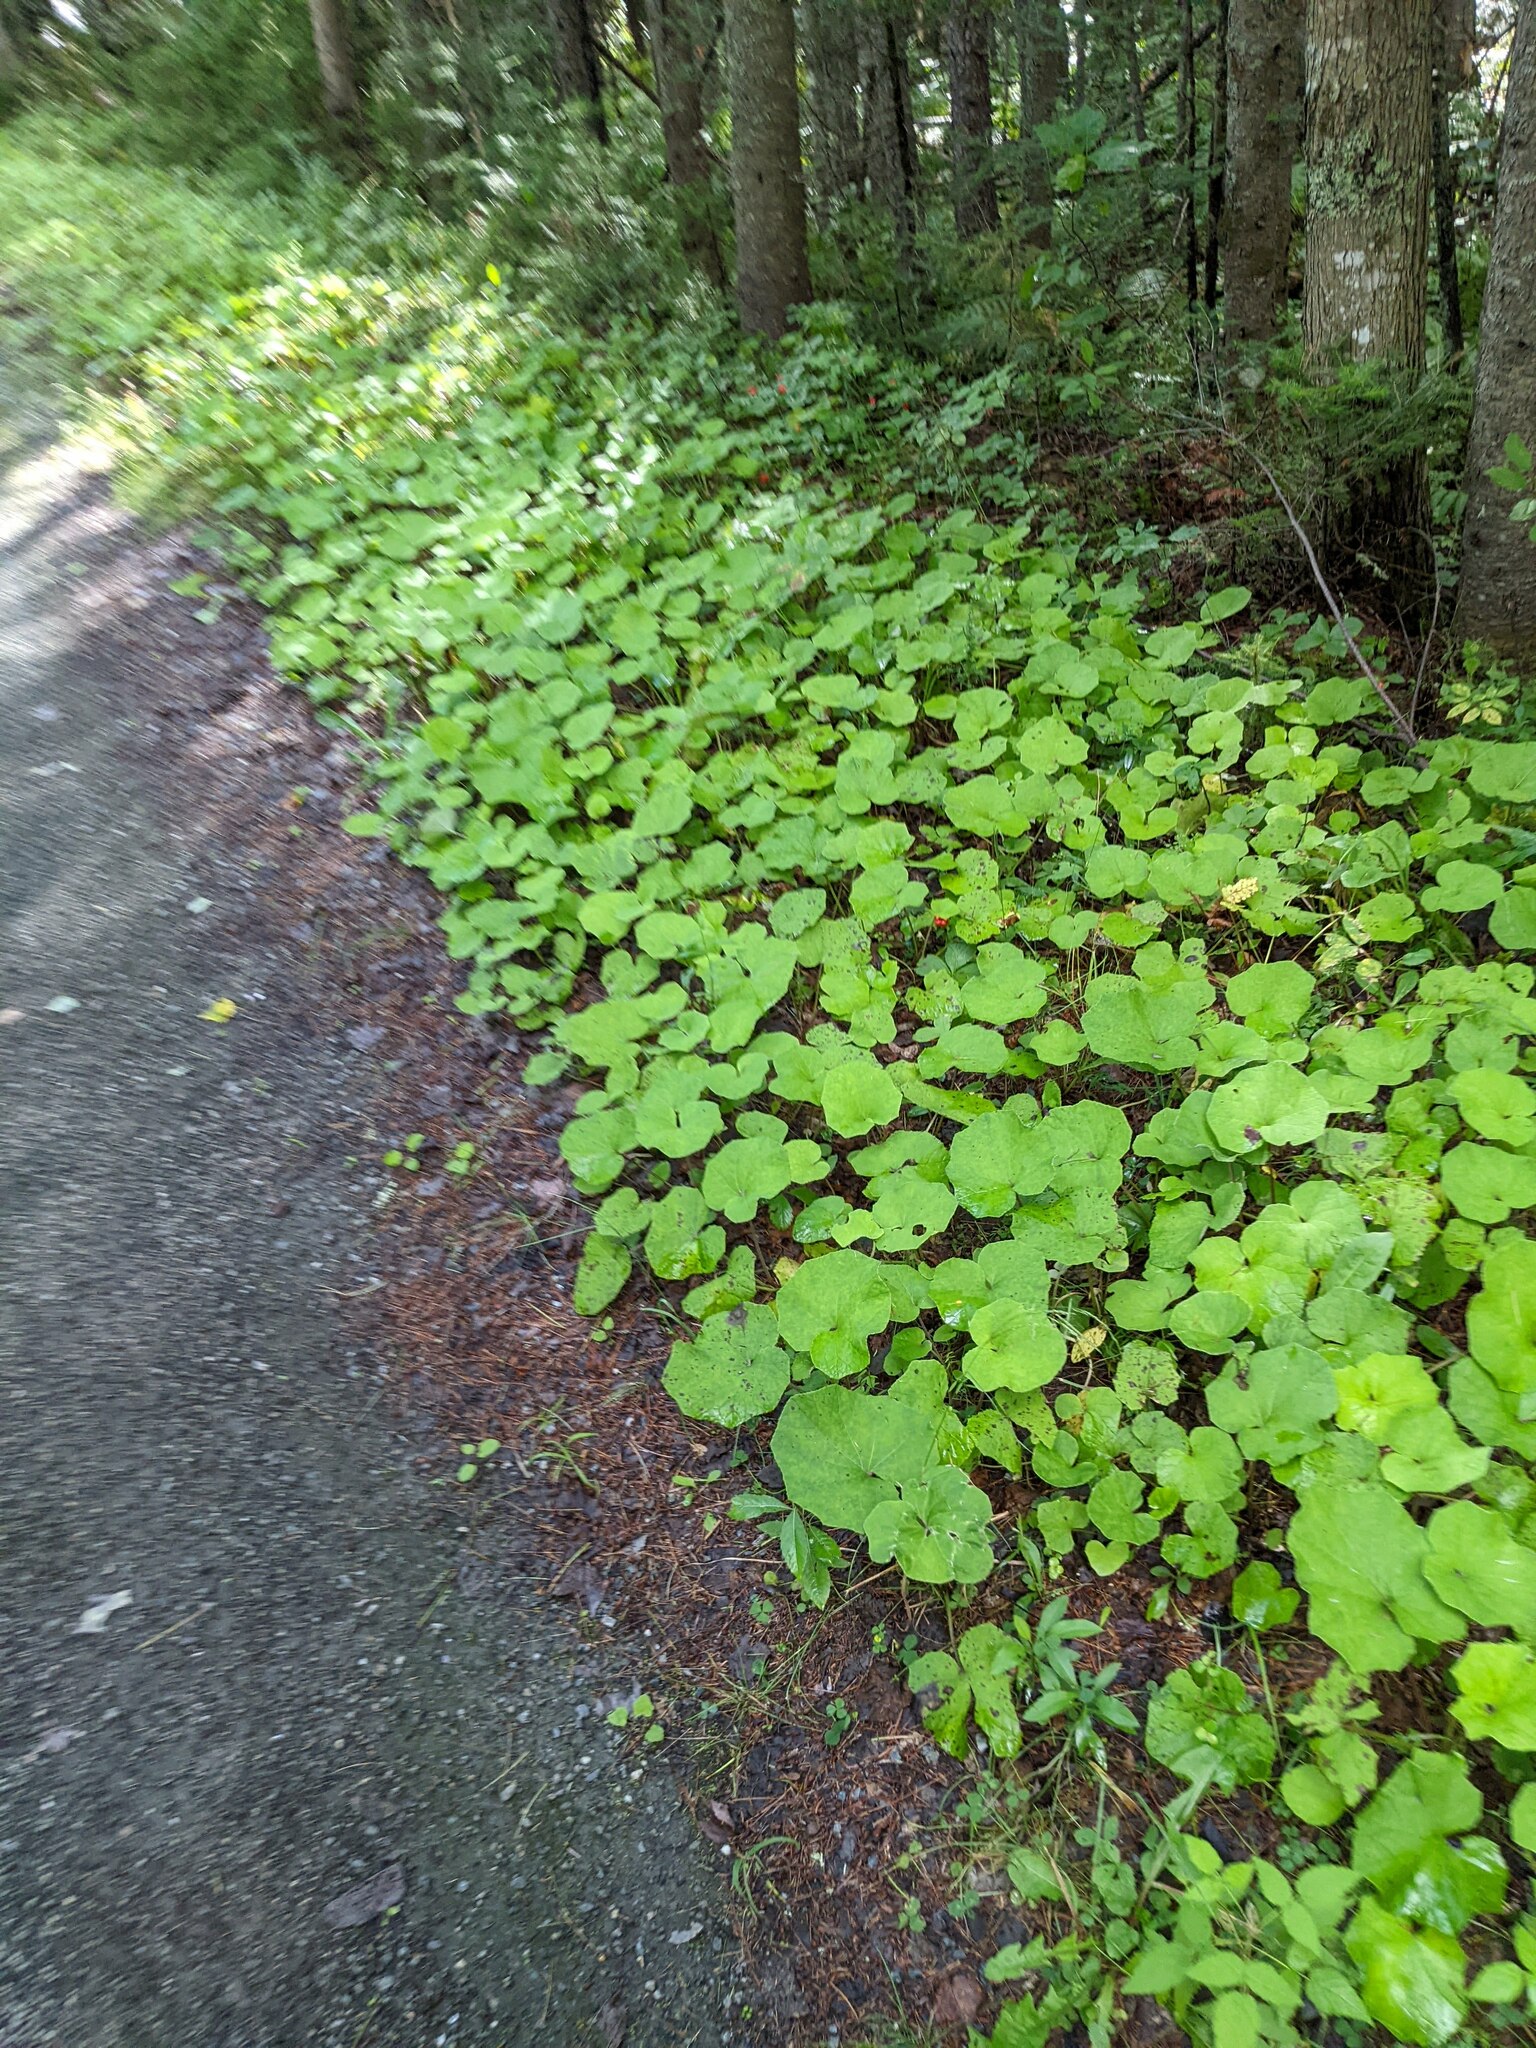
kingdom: Plantae
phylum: Tracheophyta
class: Magnoliopsida
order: Asterales
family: Asteraceae
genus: Tussilago
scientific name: Tussilago farfara
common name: Coltsfoot
